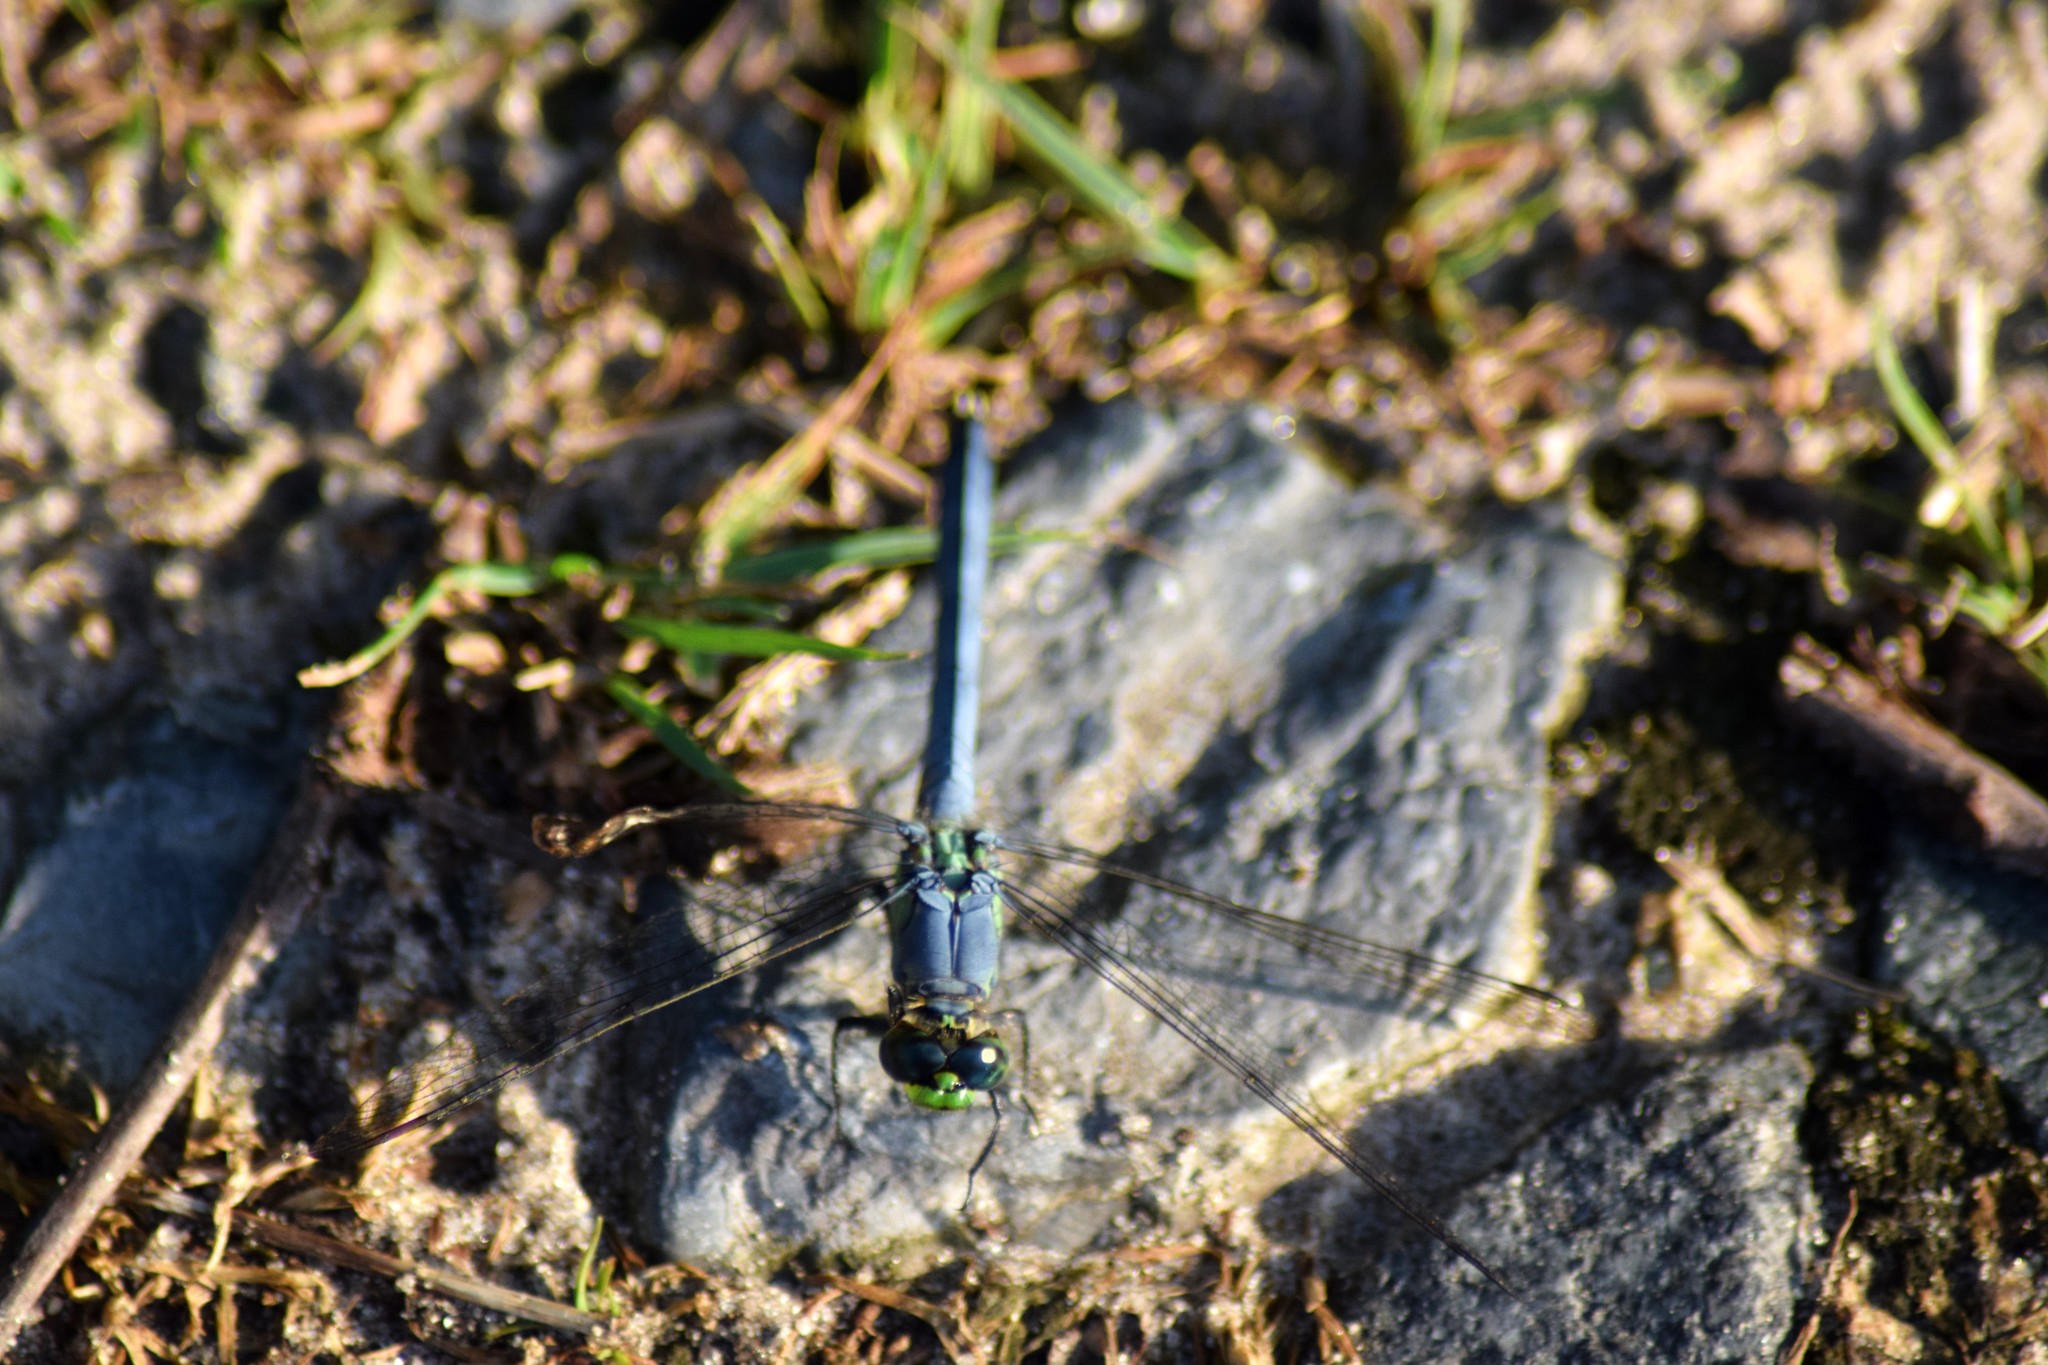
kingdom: Animalia
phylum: Arthropoda
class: Insecta
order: Odonata
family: Libellulidae
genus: Erythemis
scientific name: Erythemis simplicicollis
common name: Eastern pondhawk
